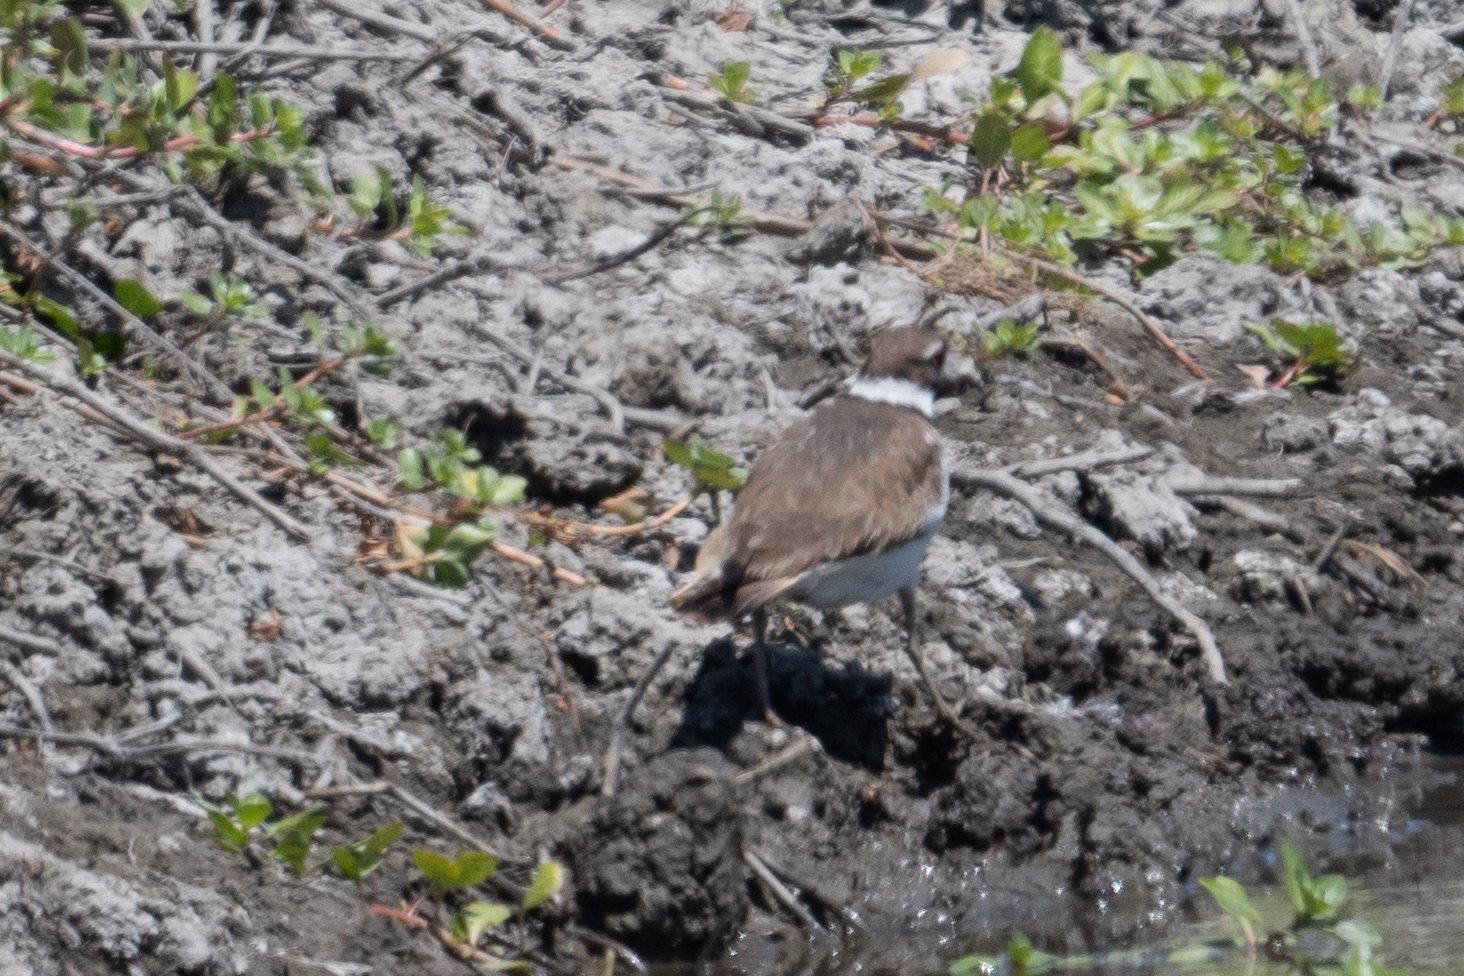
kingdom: Animalia
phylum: Chordata
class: Aves
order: Charadriiformes
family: Charadriidae
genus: Charadrius
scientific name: Charadrius vociferus
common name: Killdeer
